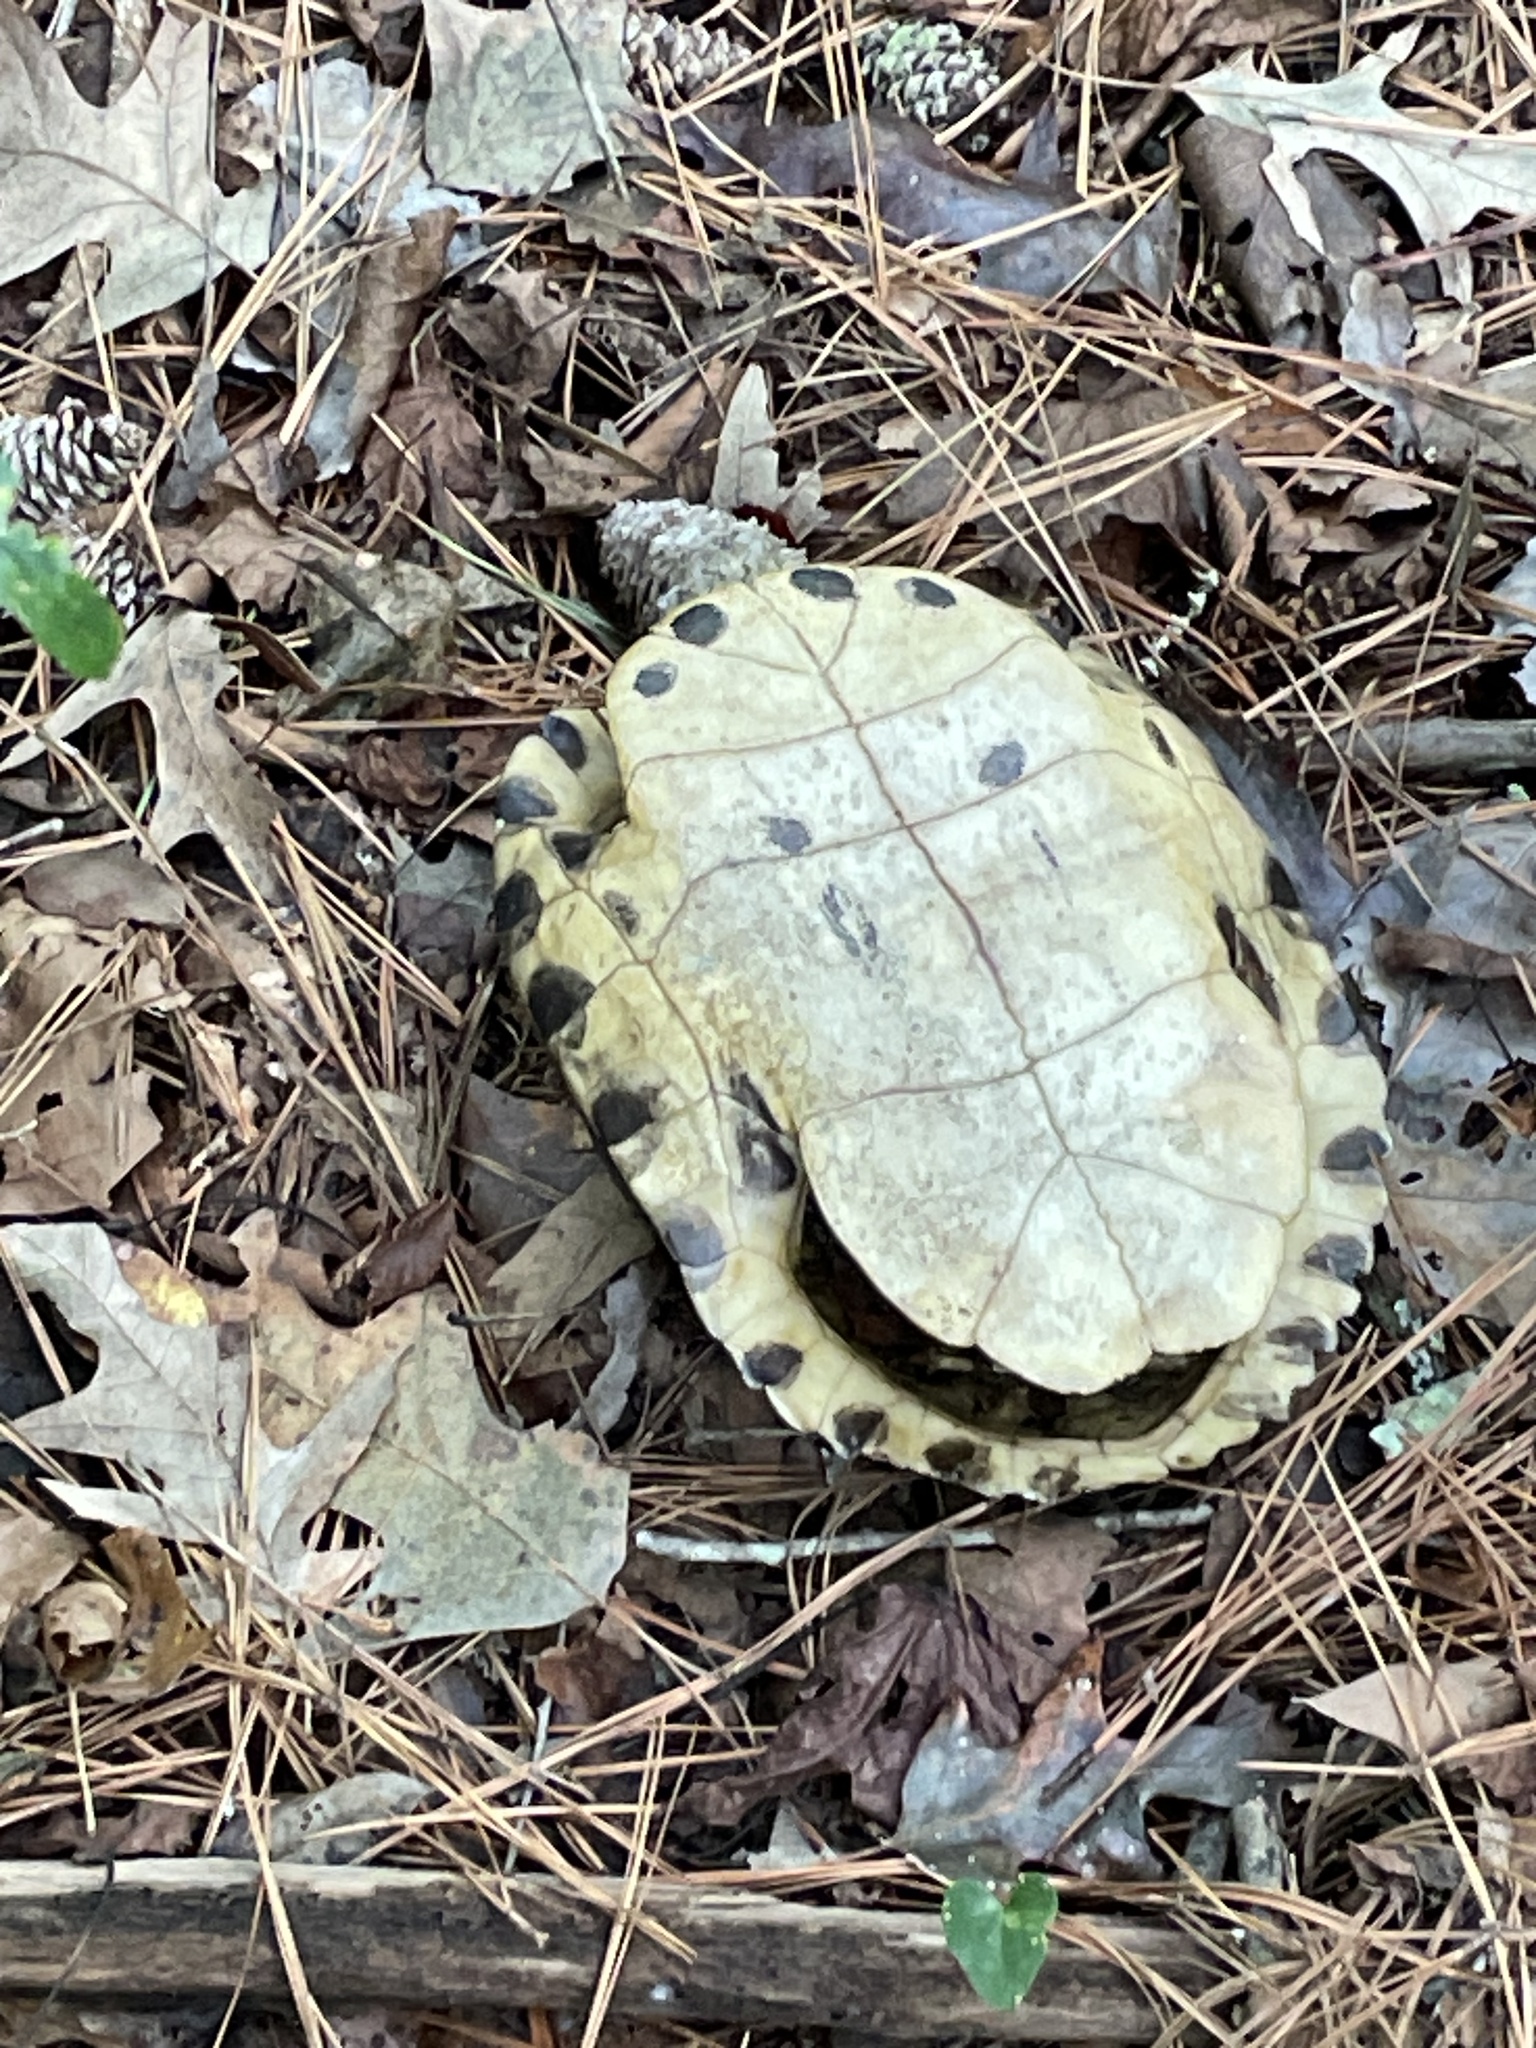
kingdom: Animalia
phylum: Chordata
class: Testudines
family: Emydidae
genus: Trachemys
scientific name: Trachemys scripta
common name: Slider
